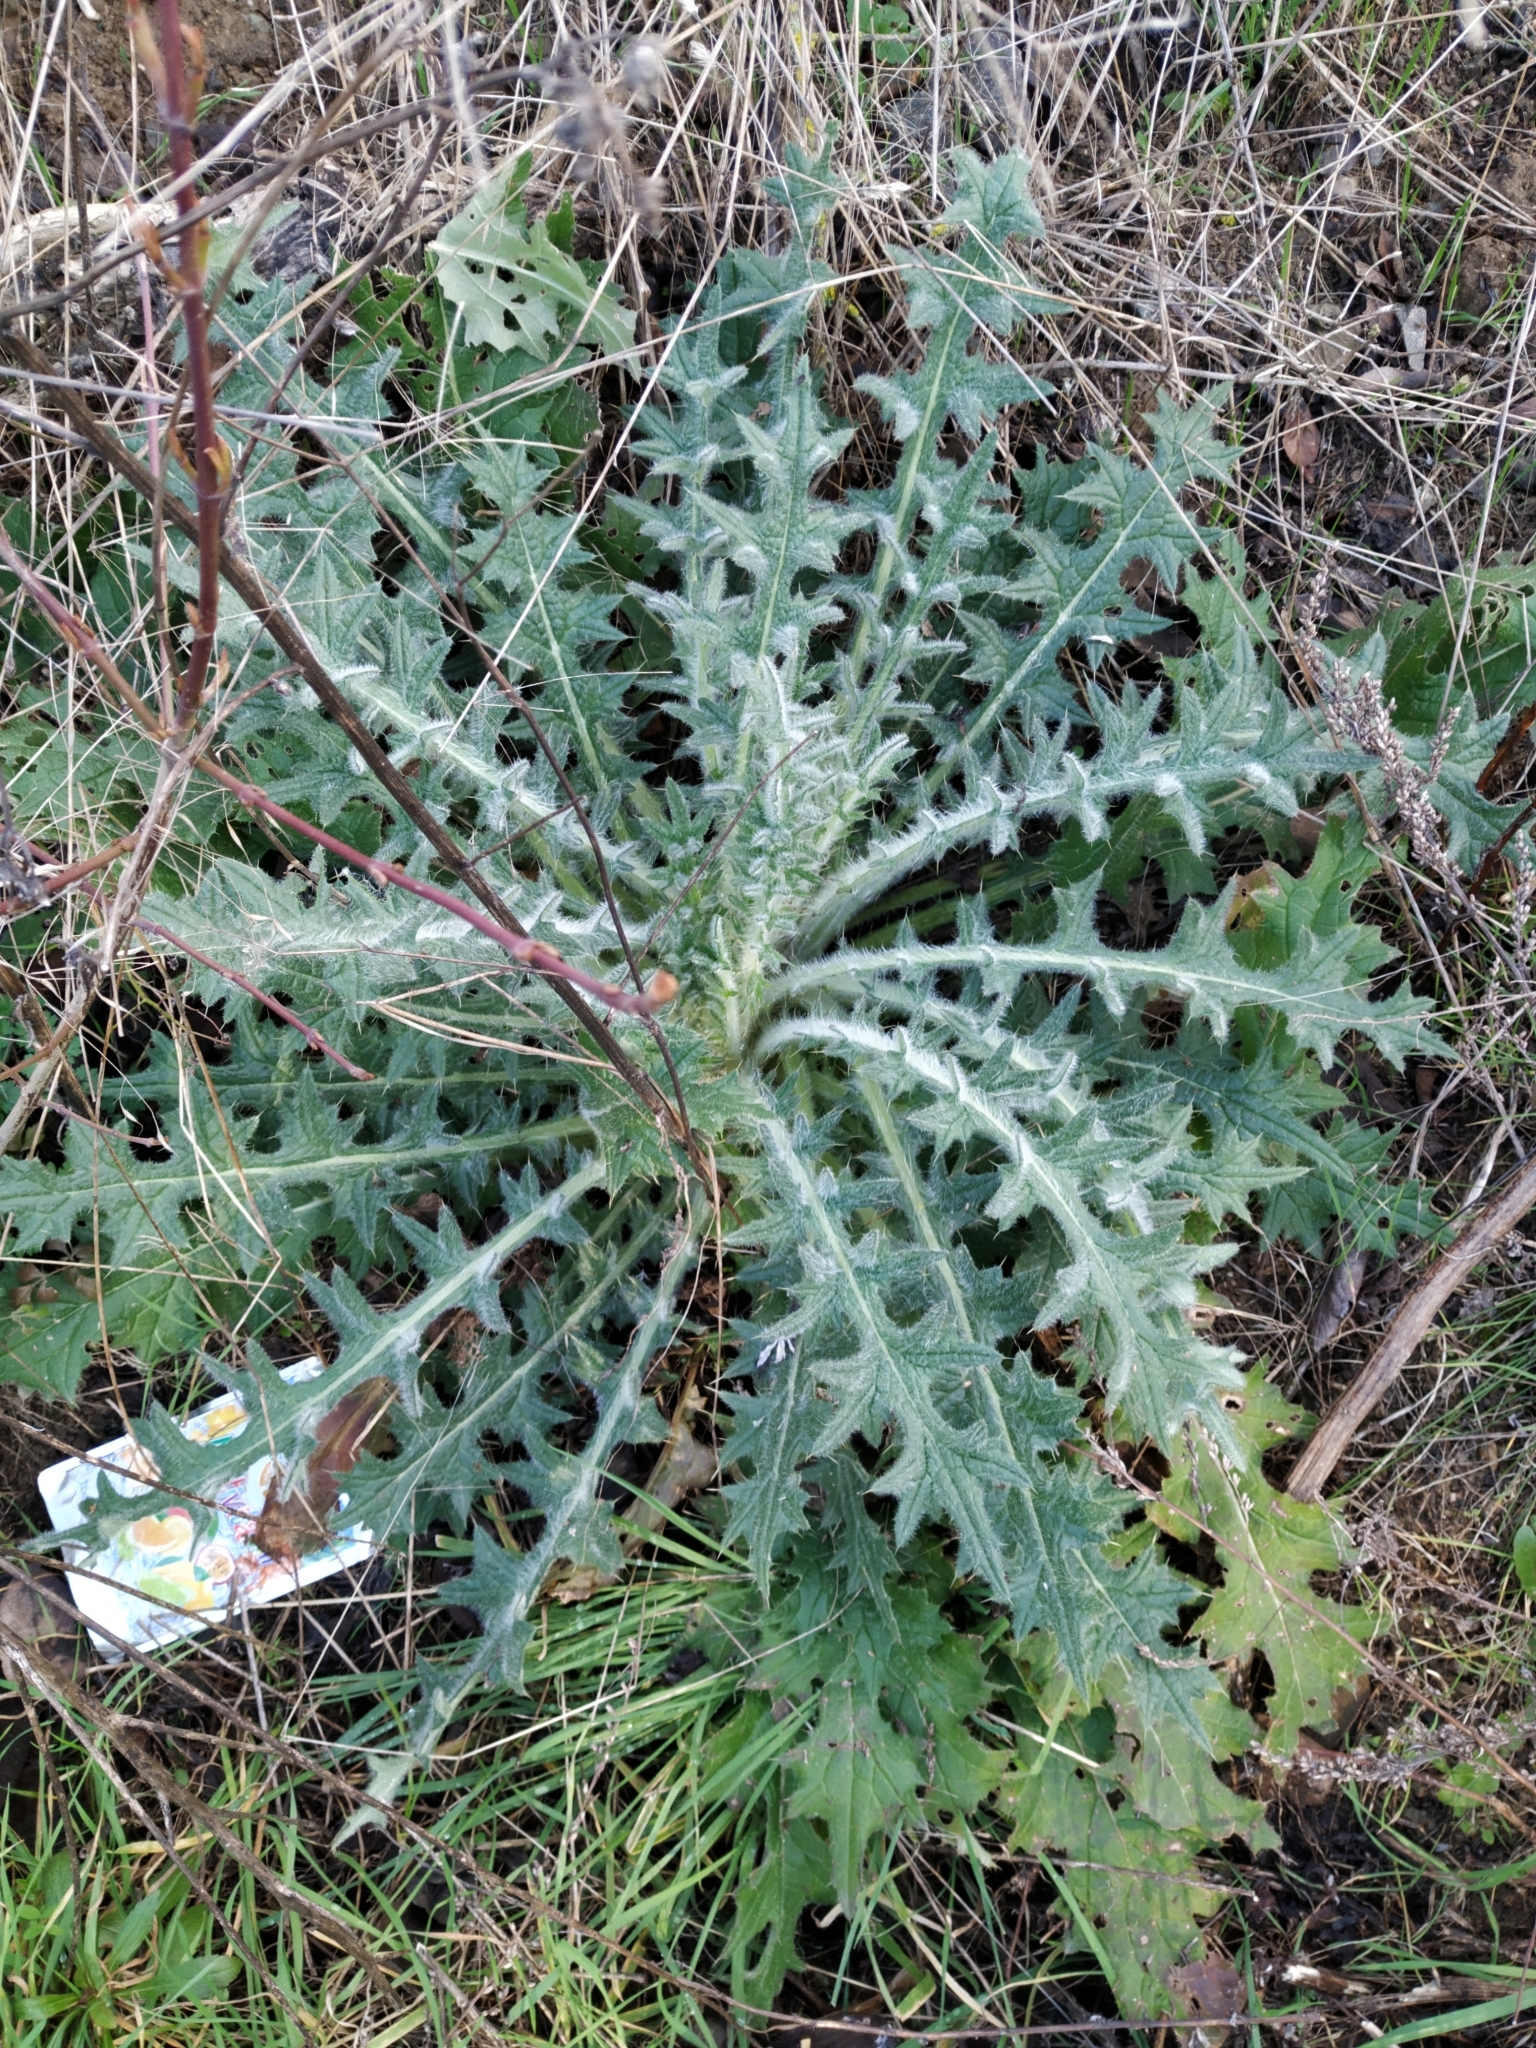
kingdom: Plantae
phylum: Tracheophyta
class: Magnoliopsida
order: Asterales
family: Asteraceae
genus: Cirsium
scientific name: Cirsium vulgare
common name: Bull thistle
